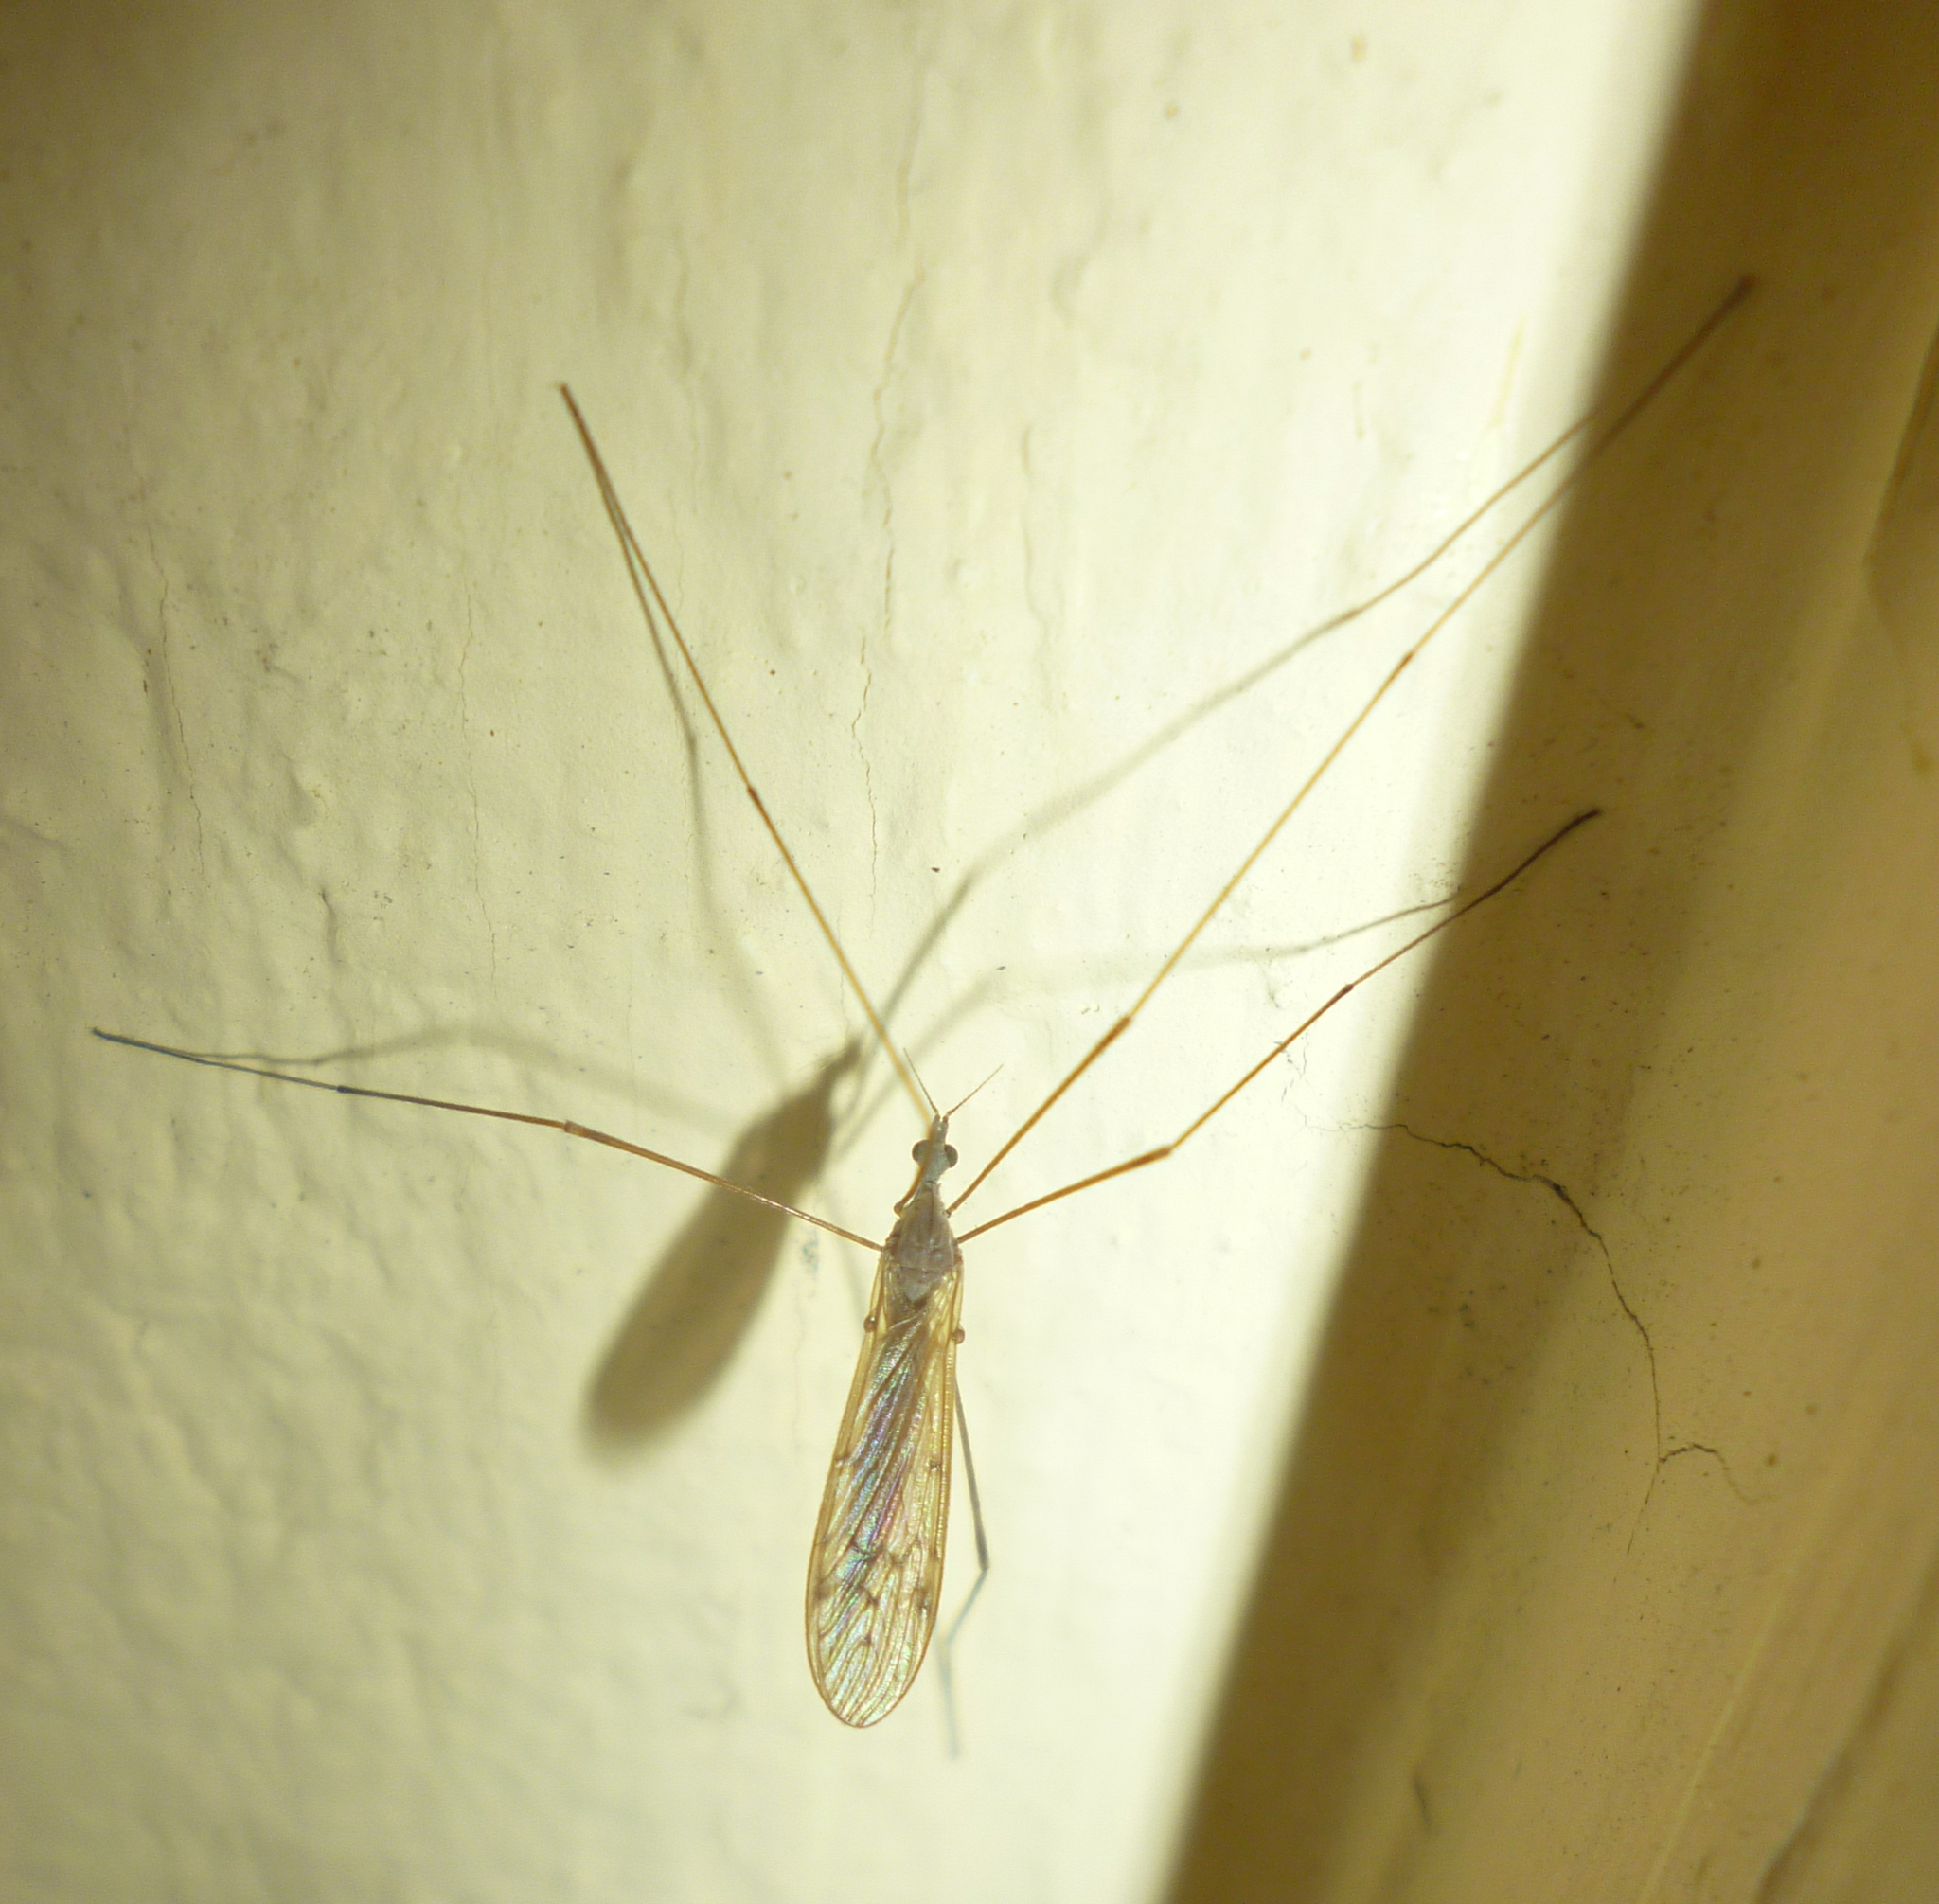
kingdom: Animalia
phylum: Arthropoda
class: Insecta
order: Diptera
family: Limoniidae
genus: Pseudolimnophila
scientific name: Pseudolimnophila luteipennis
